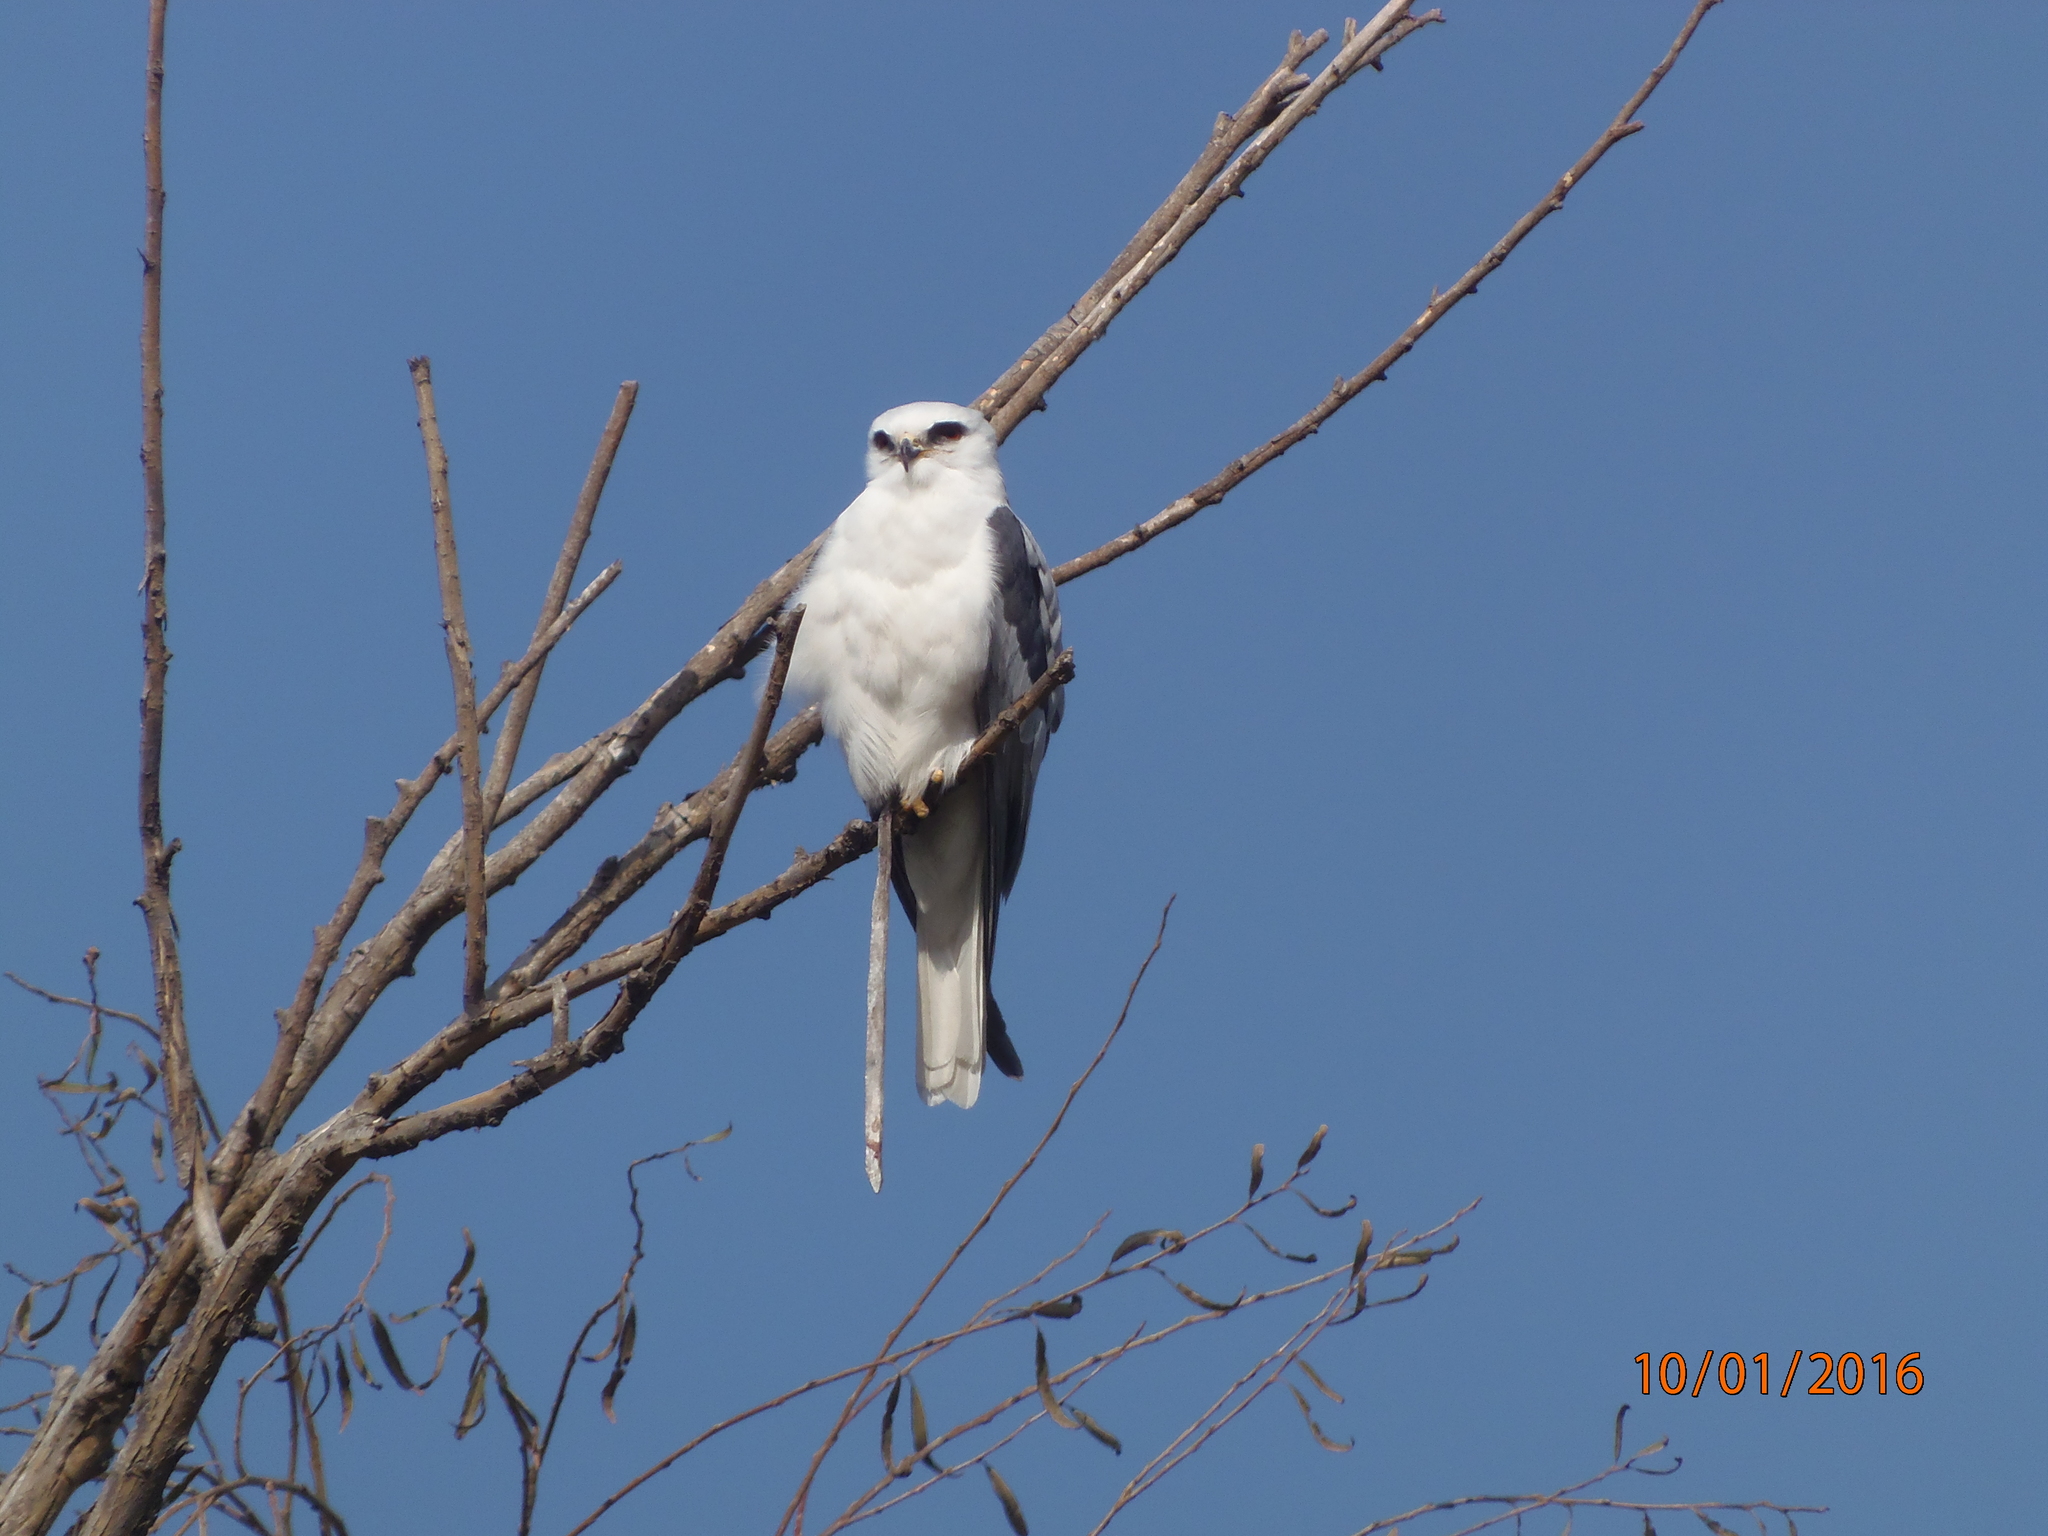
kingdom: Animalia
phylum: Chordata
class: Aves
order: Accipitriformes
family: Accipitridae
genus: Elanus
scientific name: Elanus leucurus
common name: White-tailed kite
